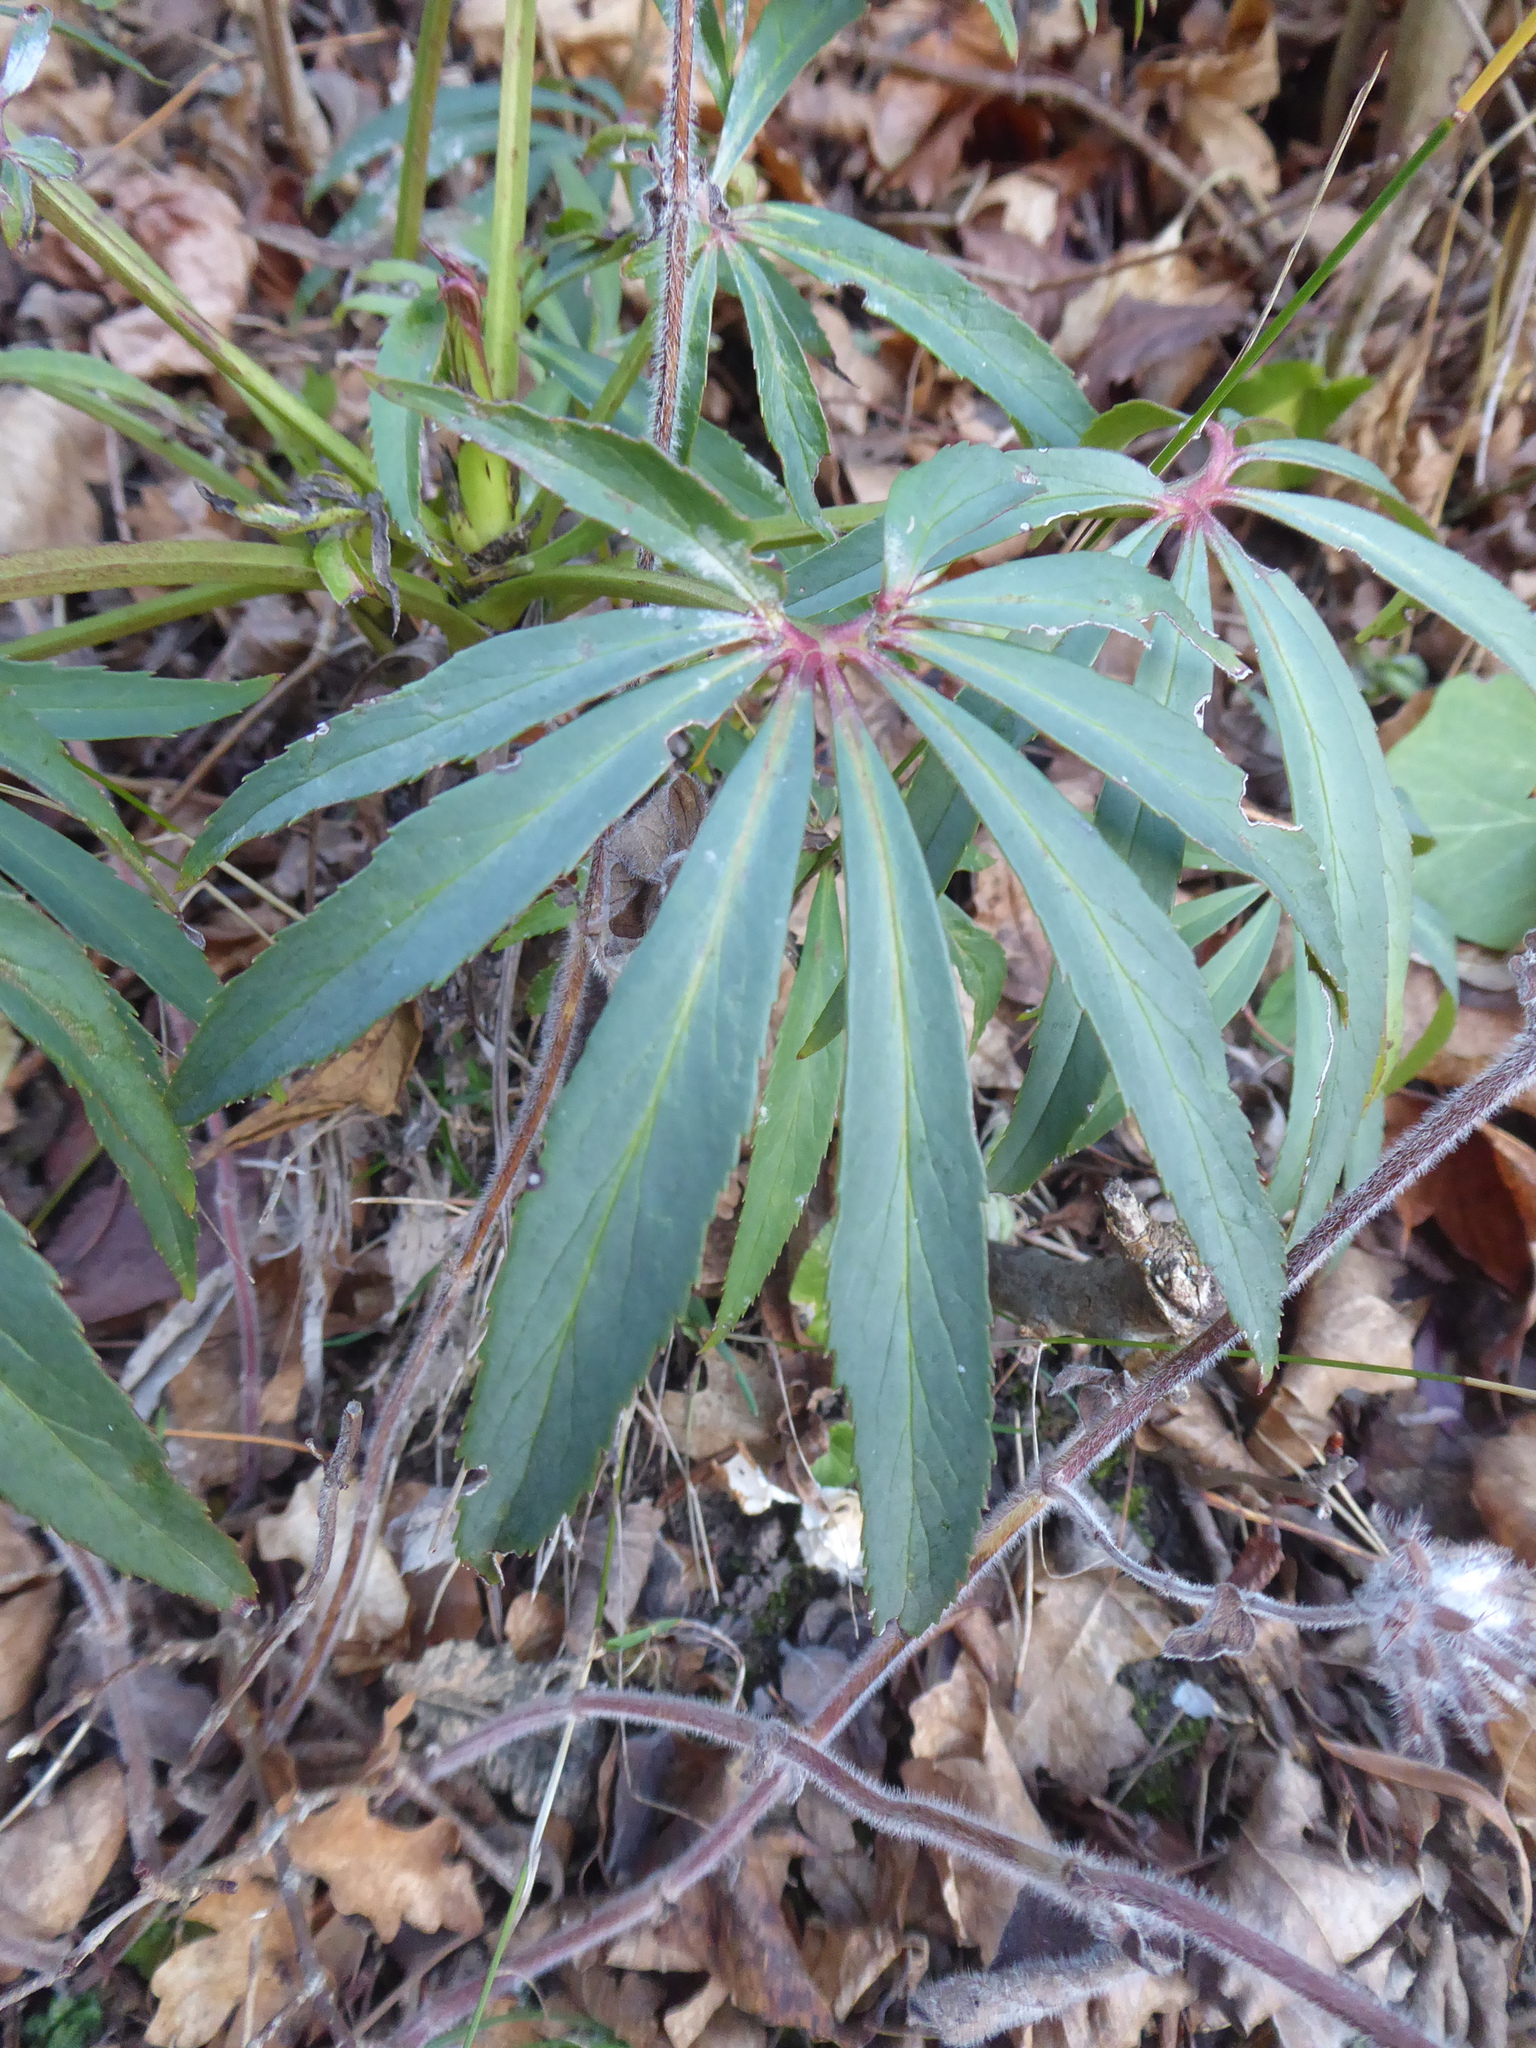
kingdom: Plantae
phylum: Tracheophyta
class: Magnoliopsida
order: Ranunculales
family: Ranunculaceae
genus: Helleborus
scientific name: Helleborus foetidus
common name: Stinking hellebore
